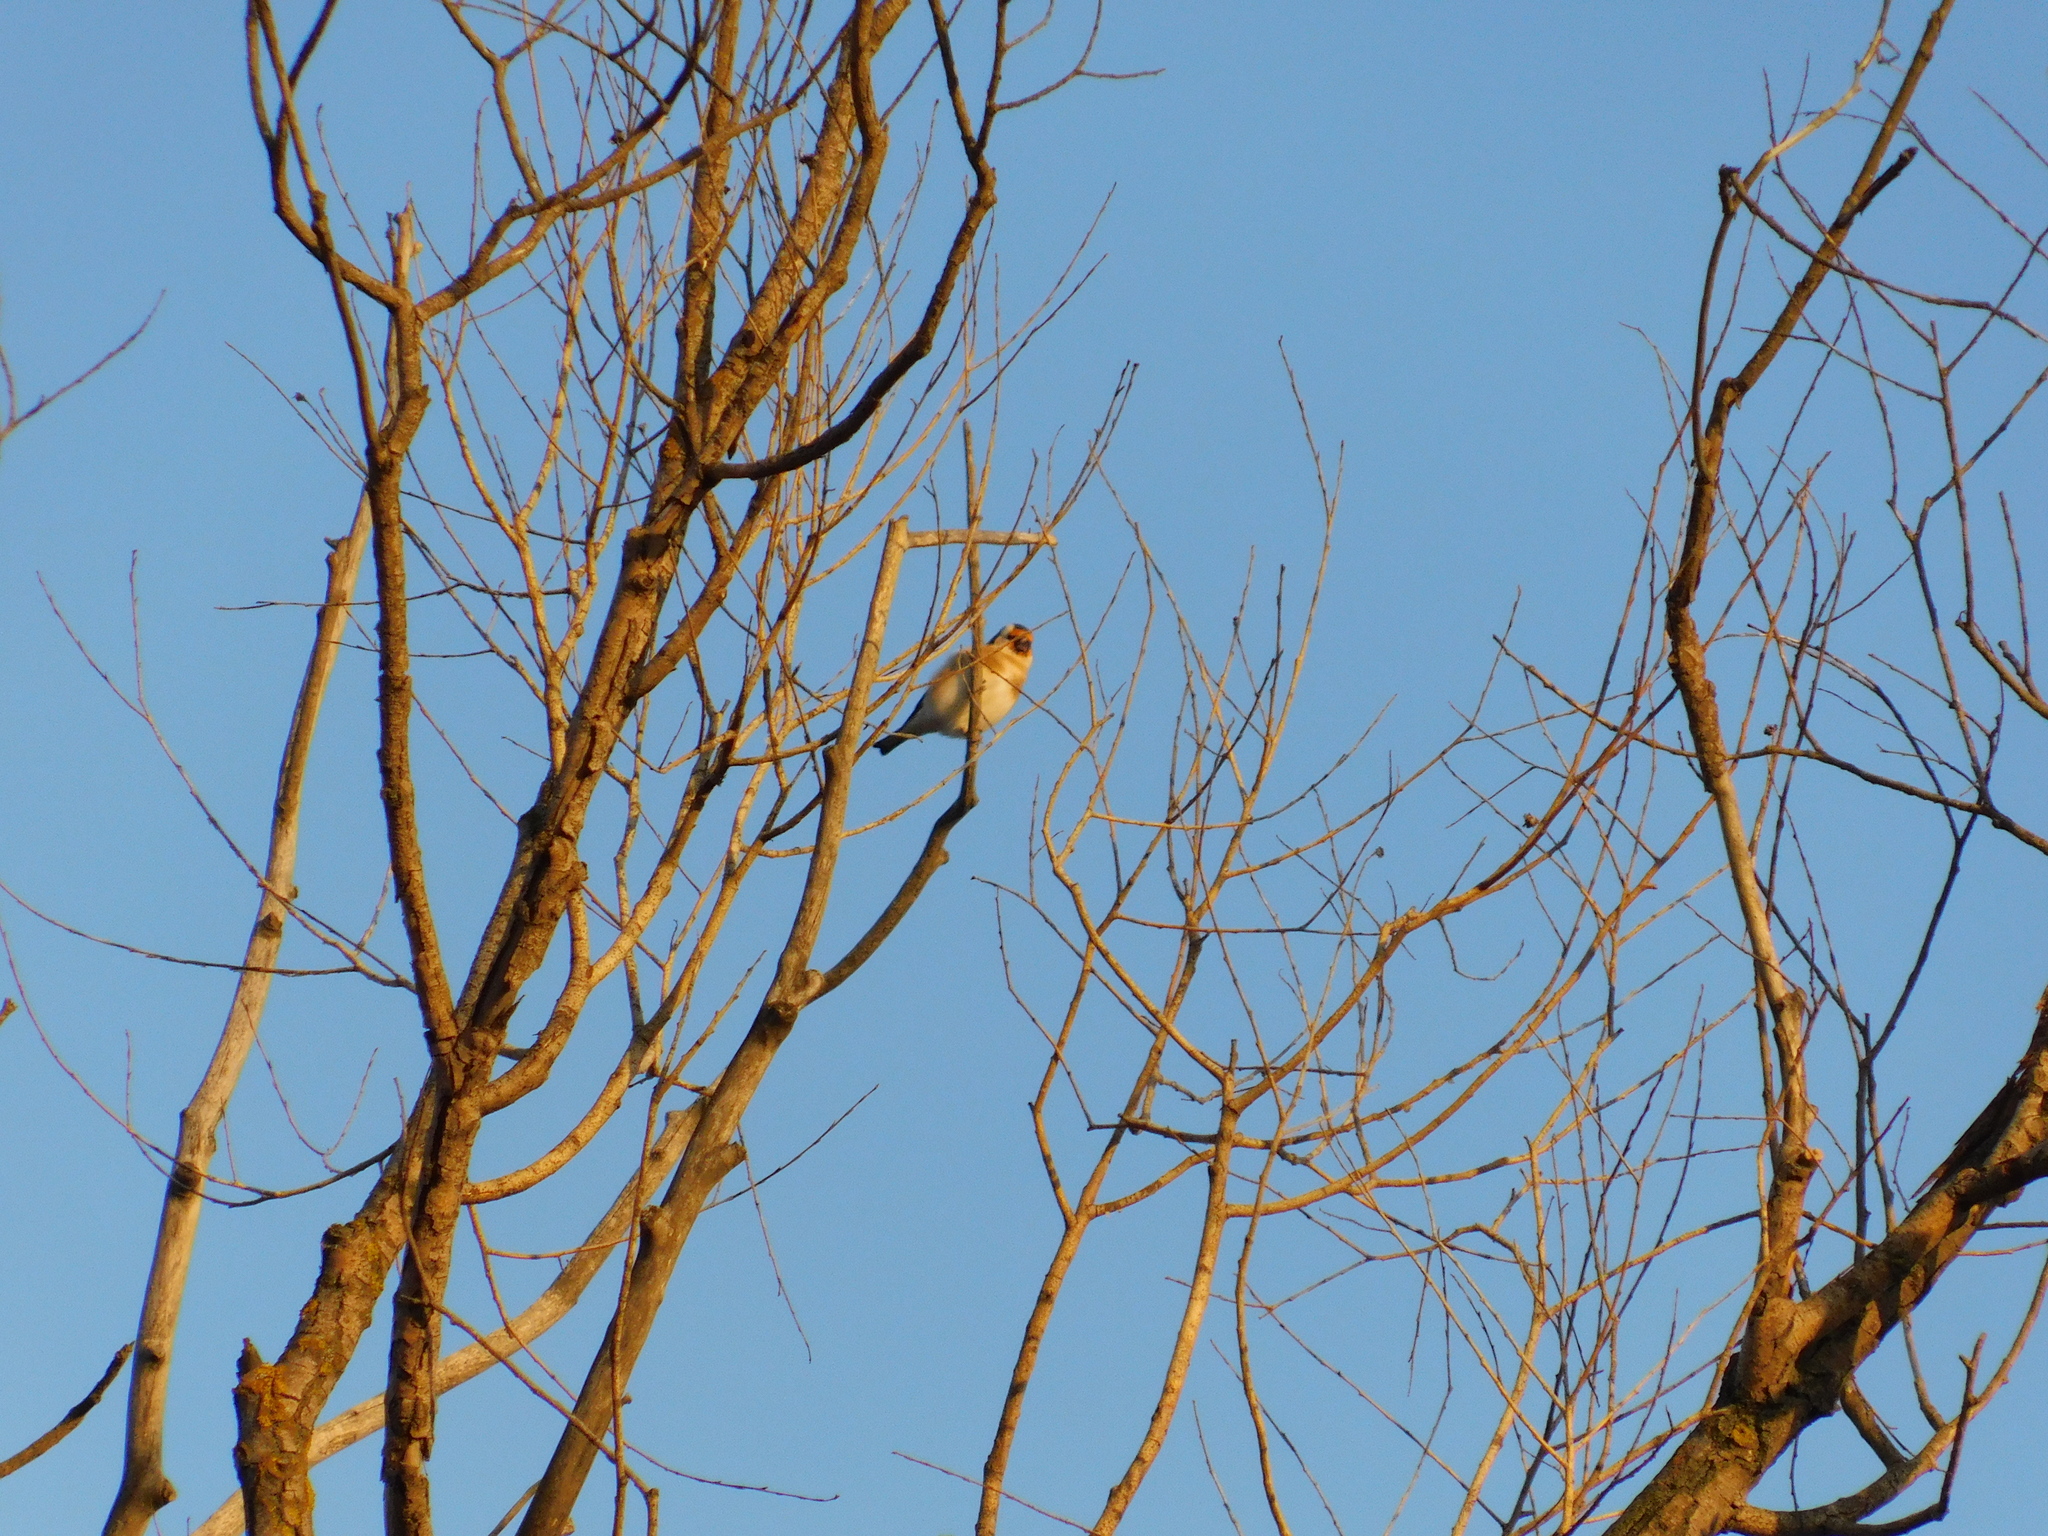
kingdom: Animalia
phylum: Chordata
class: Aves
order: Passeriformes
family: Fringillidae
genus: Carduelis
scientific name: Carduelis carduelis
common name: European goldfinch
